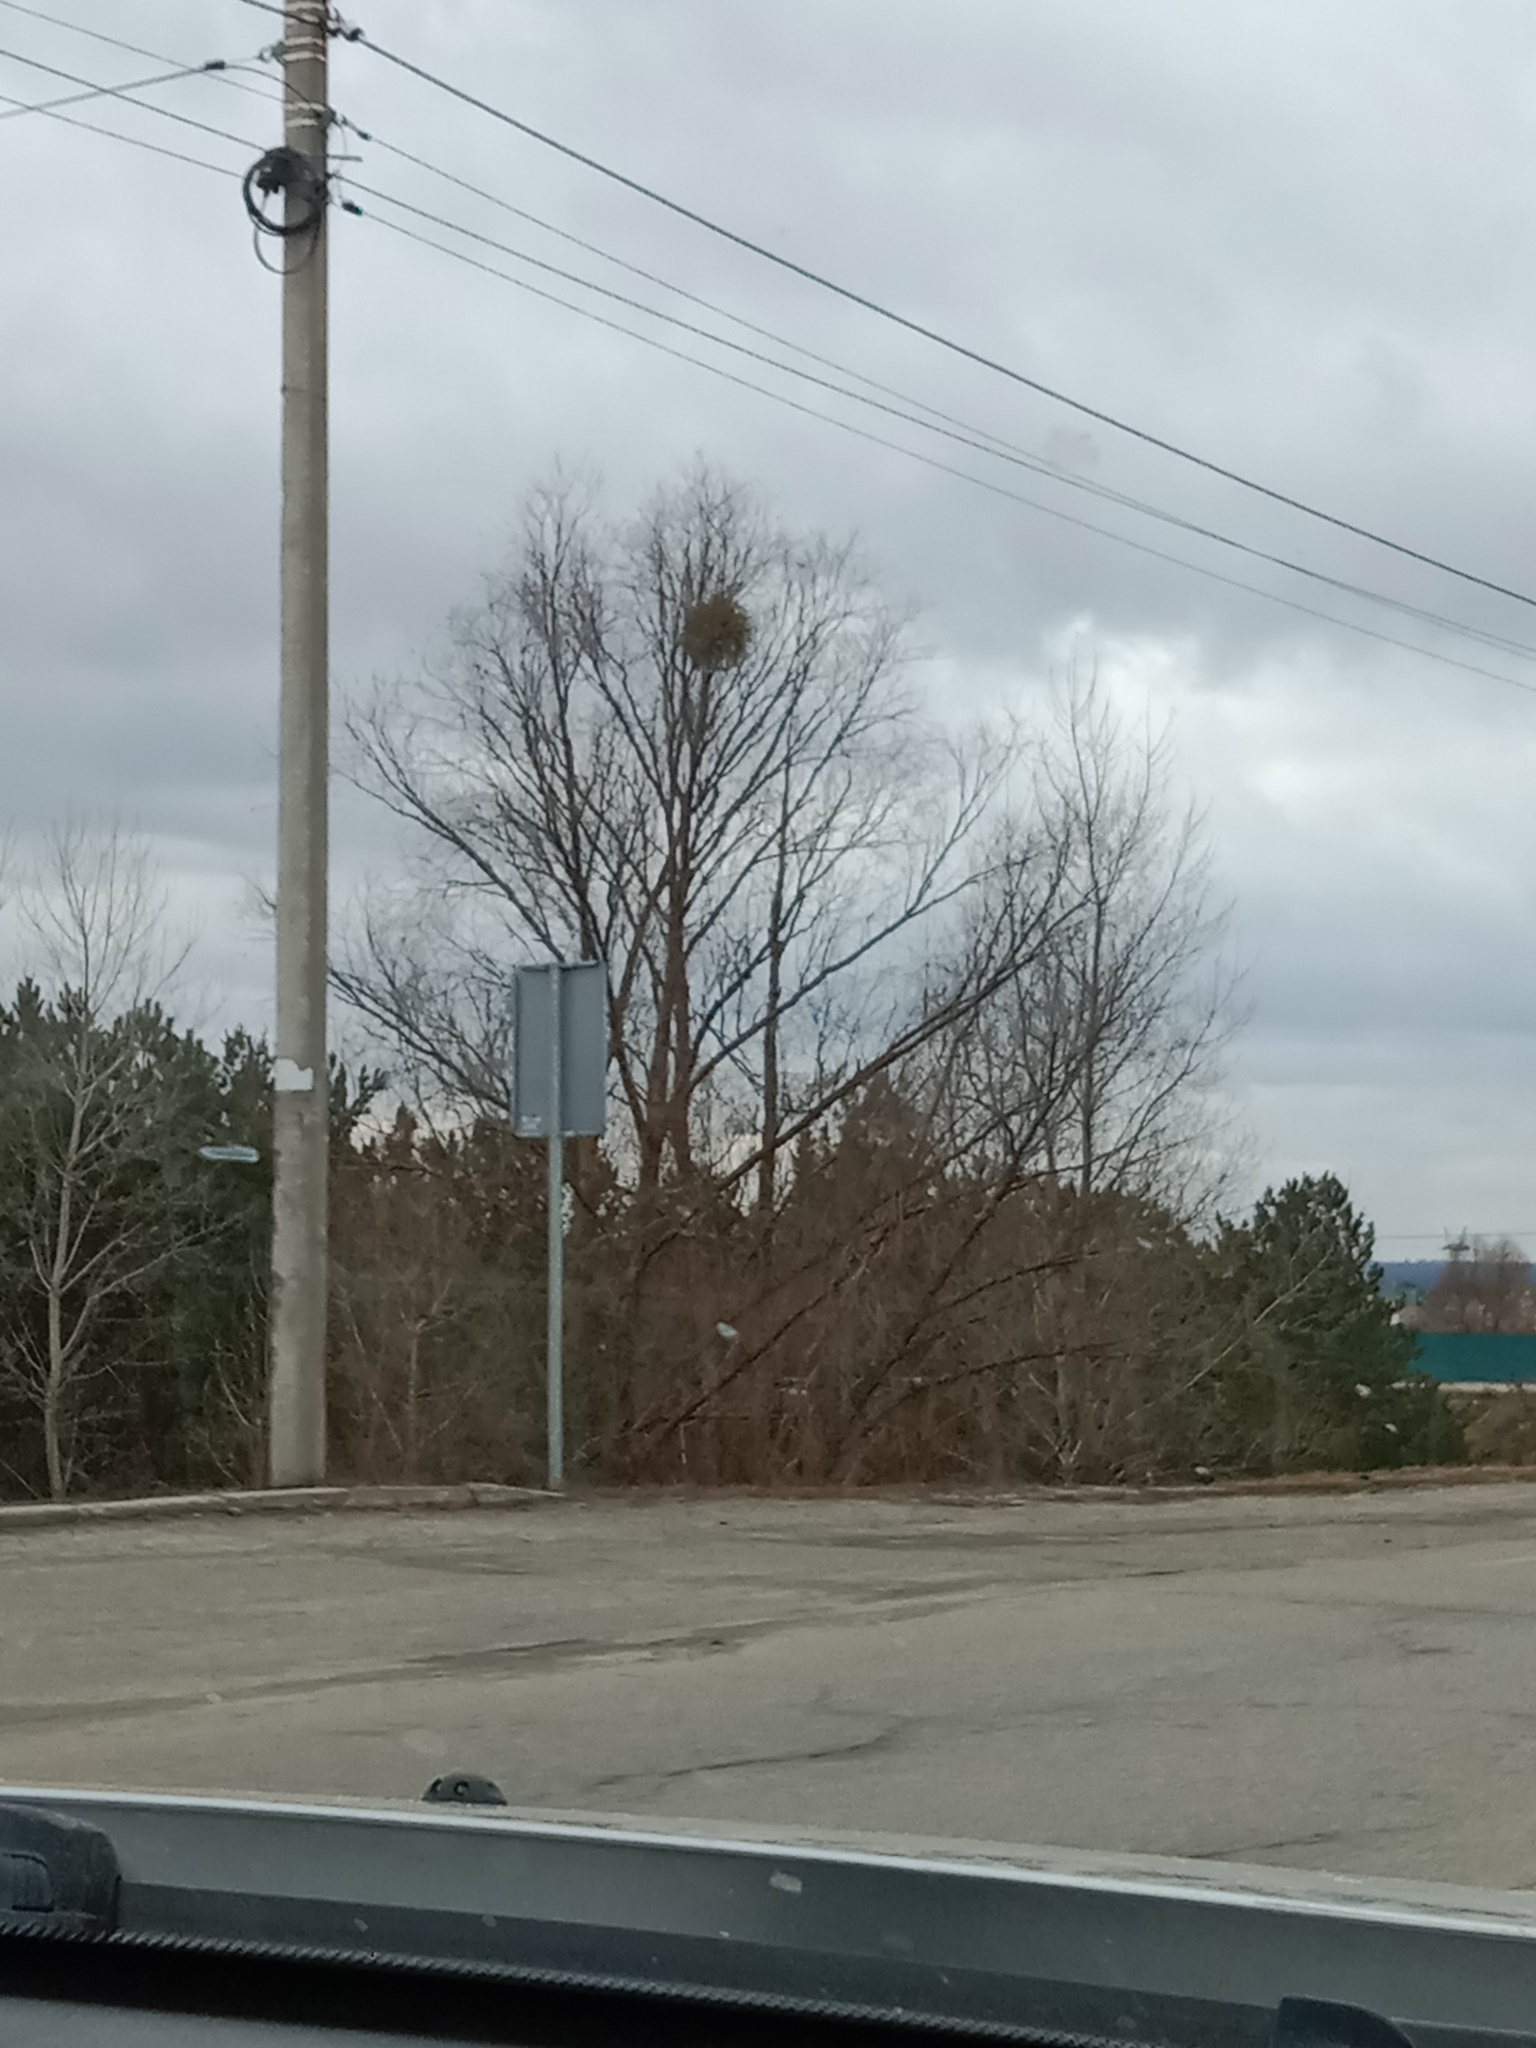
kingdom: Plantae
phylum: Tracheophyta
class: Magnoliopsida
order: Santalales
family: Viscaceae
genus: Viscum
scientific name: Viscum album
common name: Mistletoe
